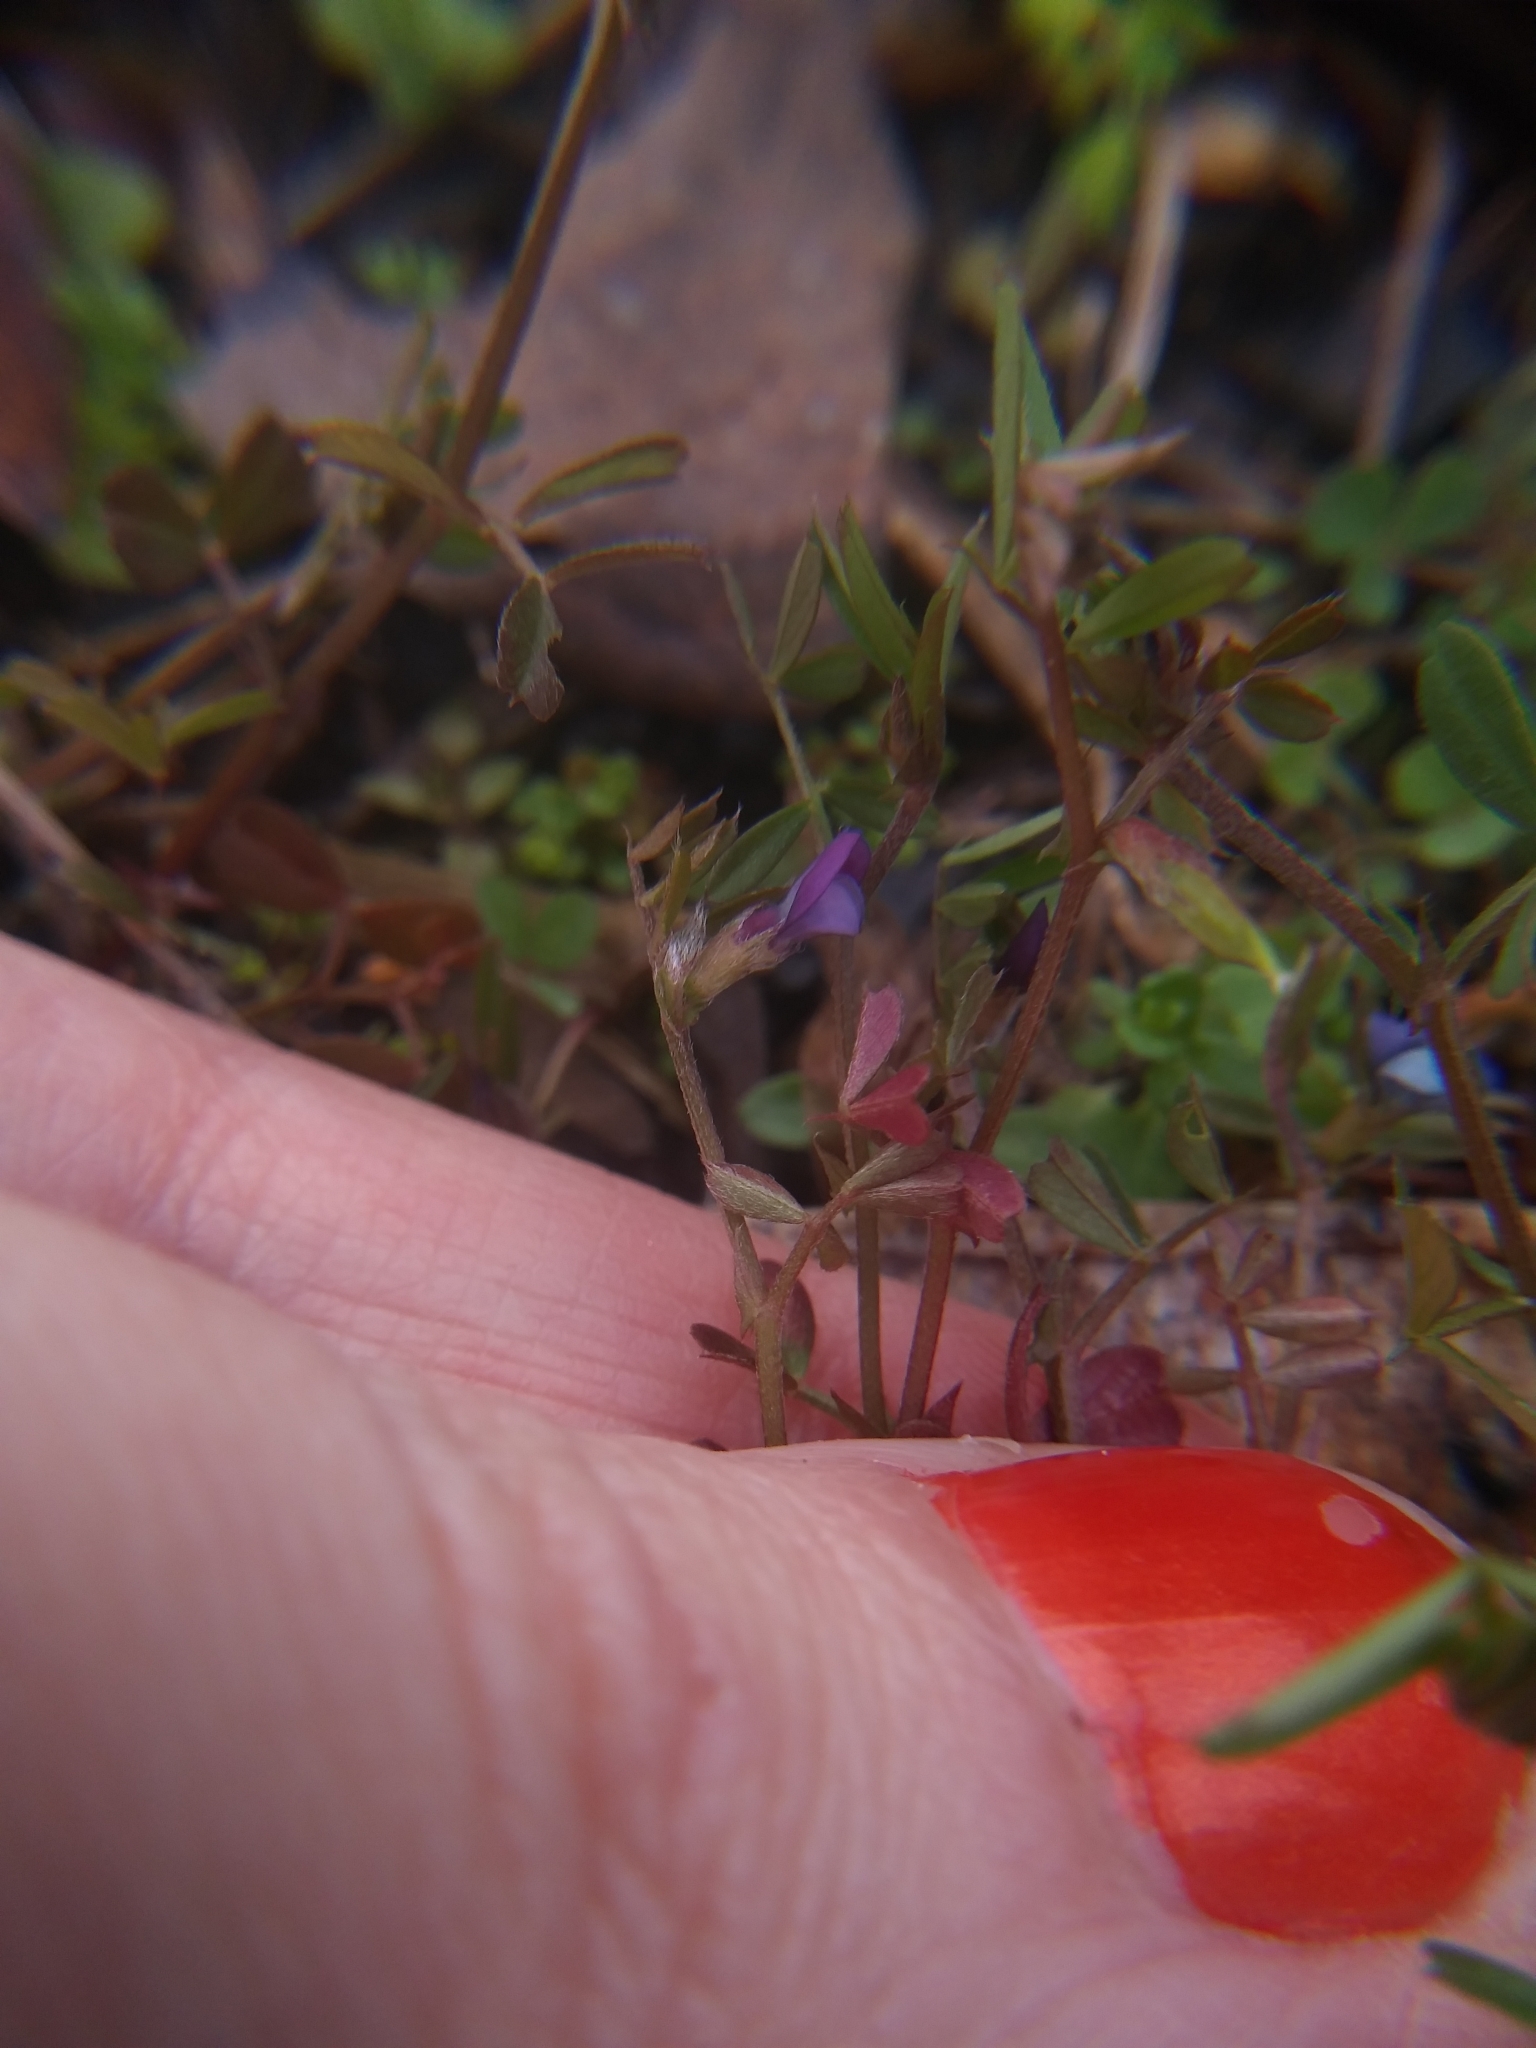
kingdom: Plantae
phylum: Tracheophyta
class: Magnoliopsida
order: Fabales
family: Fabaceae
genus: Vicia
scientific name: Vicia lathyroides
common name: Spring vetch
